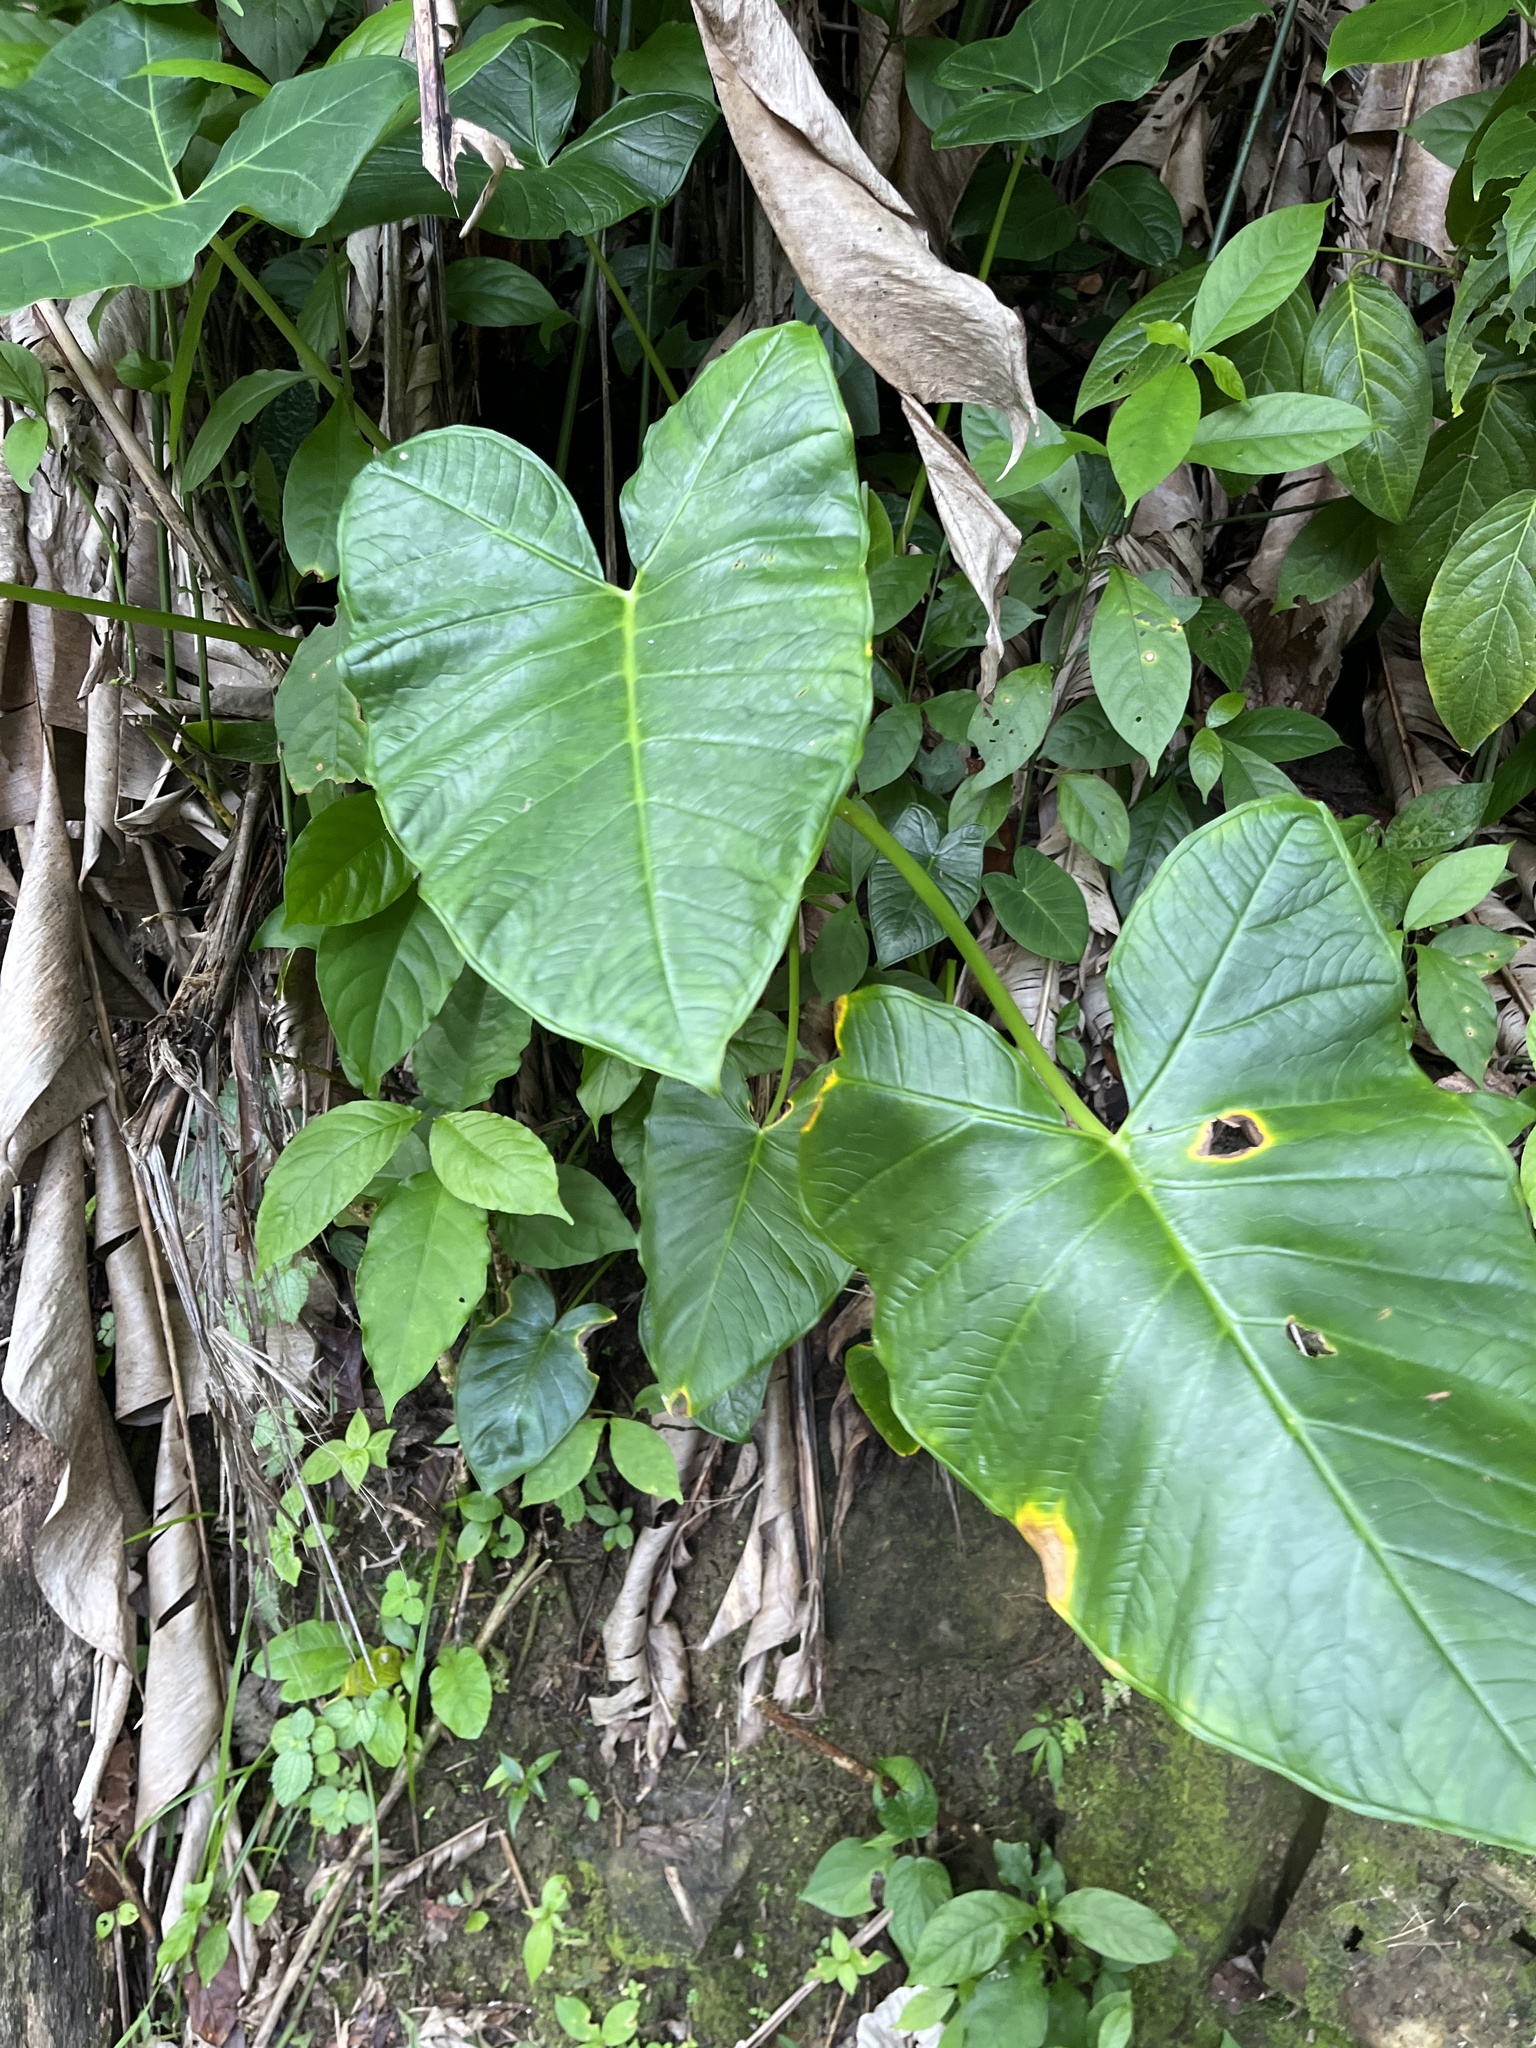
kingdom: Plantae
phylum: Tracheophyta
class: Liliopsida
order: Alismatales
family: Araceae
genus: Xanthosoma
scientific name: Xanthosoma acevedoi
